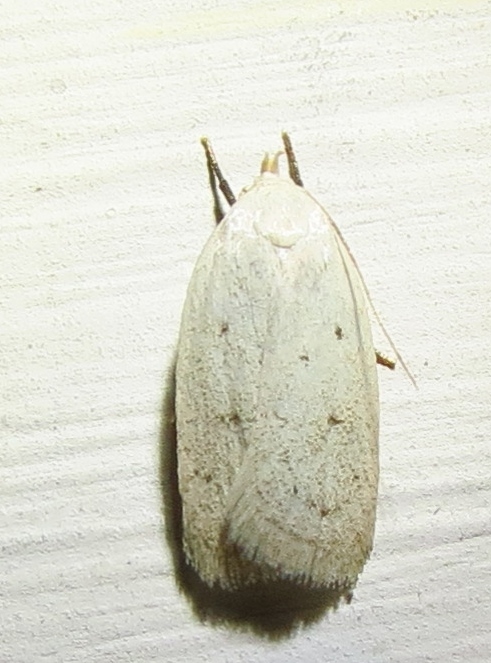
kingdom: Animalia
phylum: Arthropoda
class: Insecta
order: Lepidoptera
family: Oecophoridae
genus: Inga
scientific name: Inga cretacea
